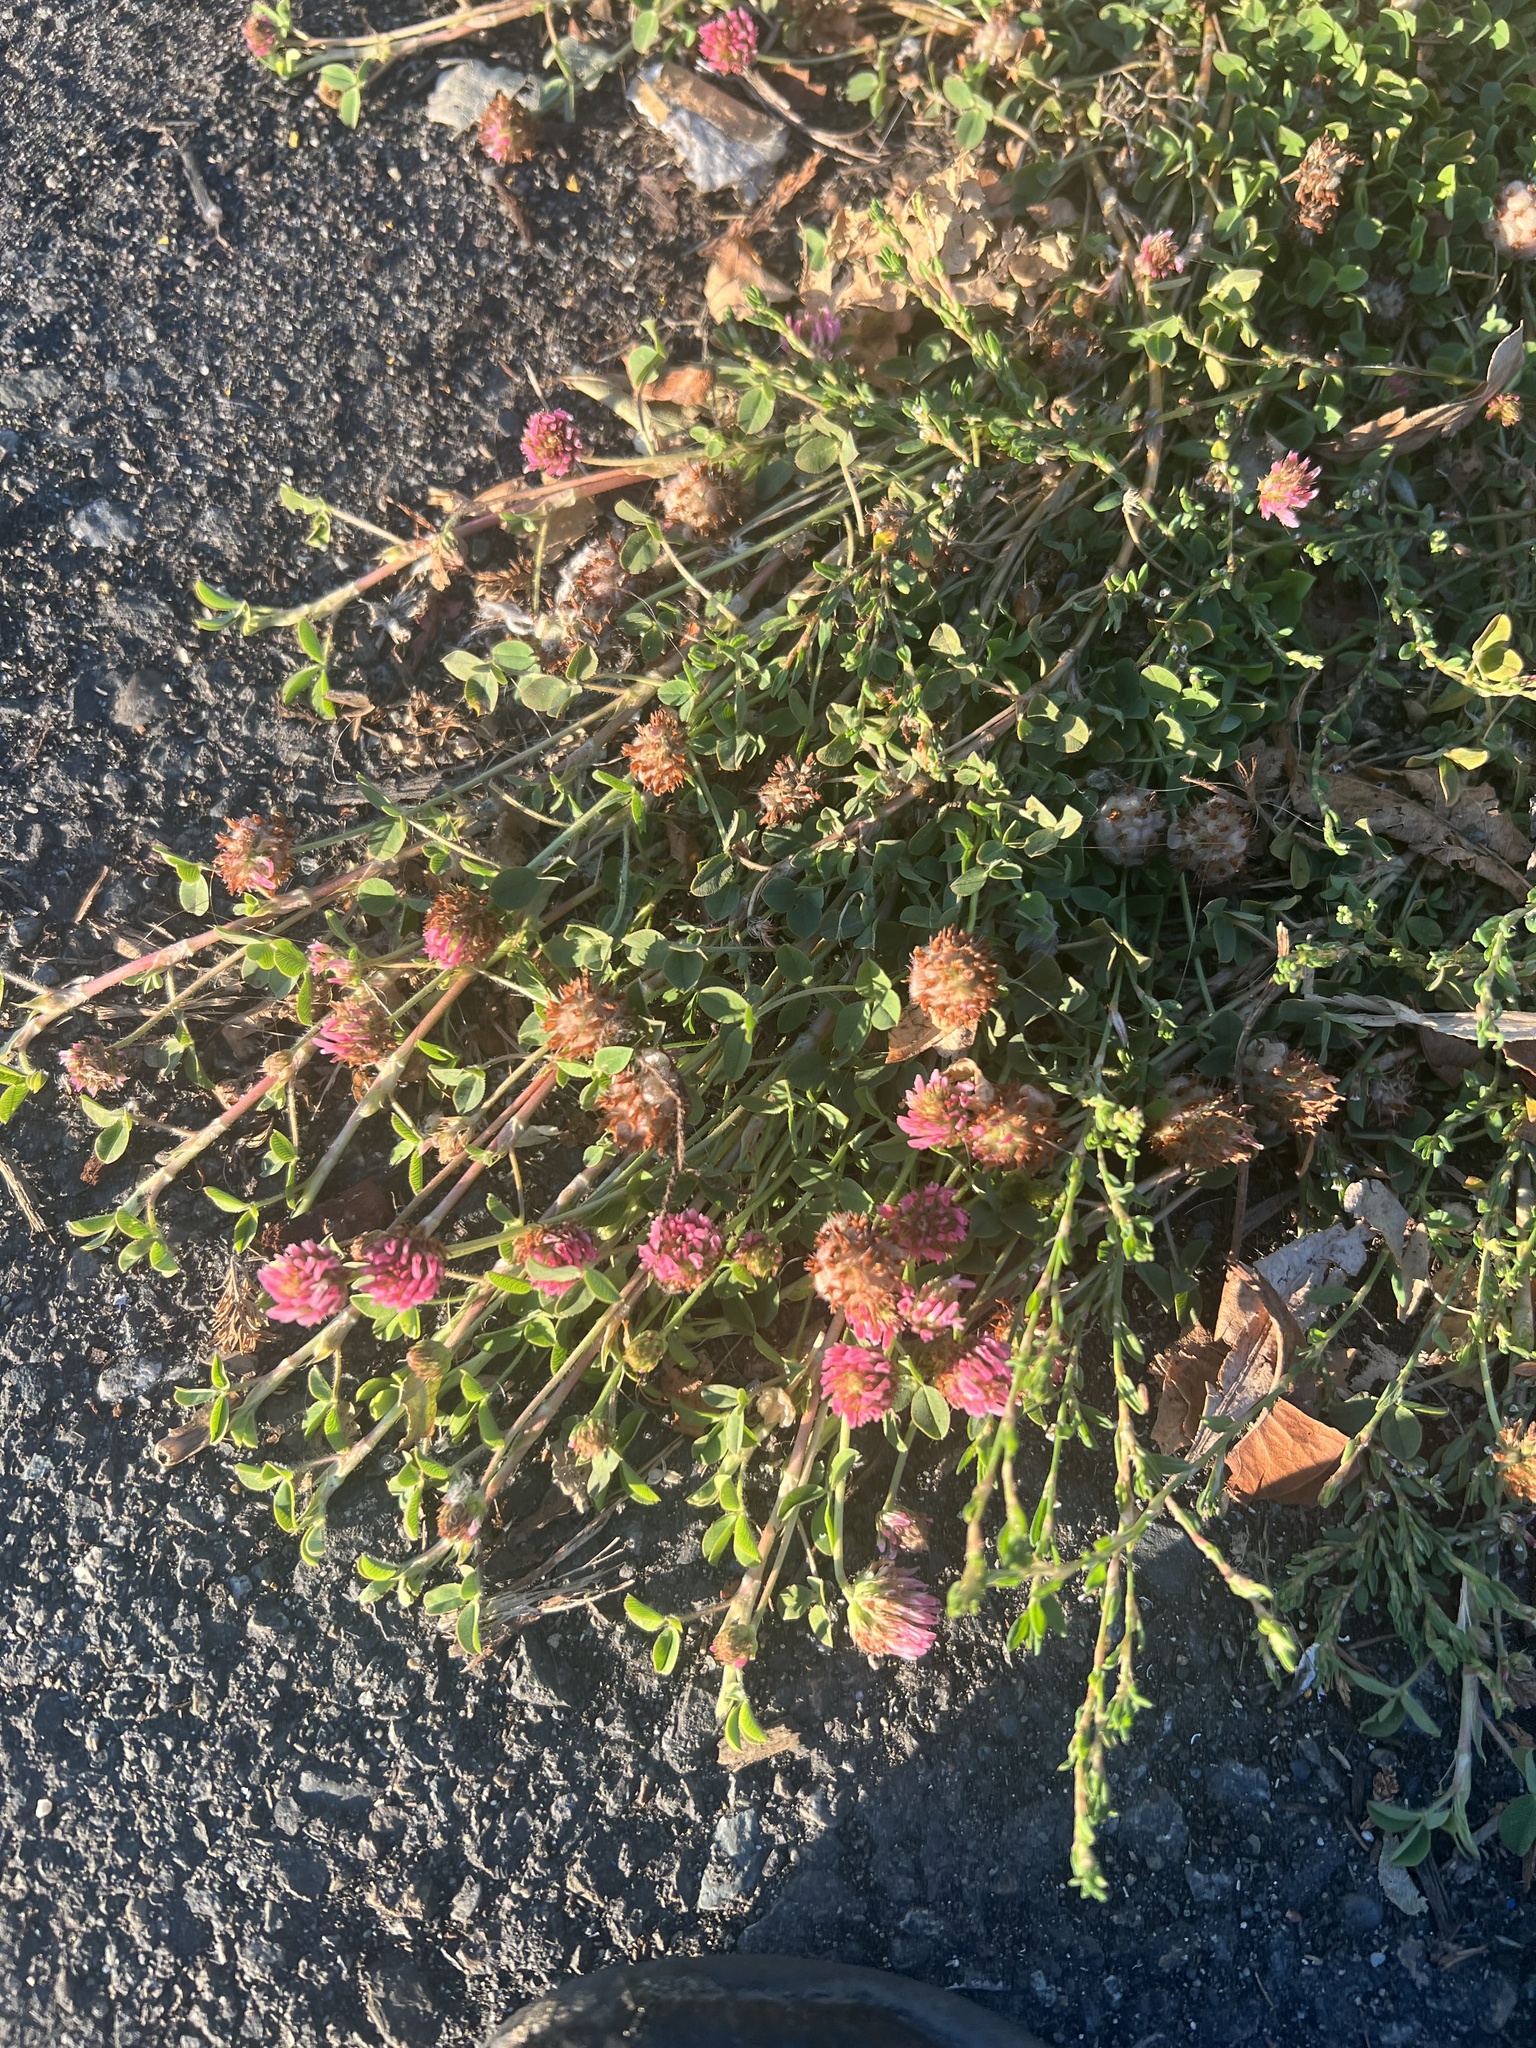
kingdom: Plantae
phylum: Tracheophyta
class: Magnoliopsida
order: Fabales
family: Fabaceae
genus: Trifolium
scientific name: Trifolium fragiferum
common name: Strawberry clover
